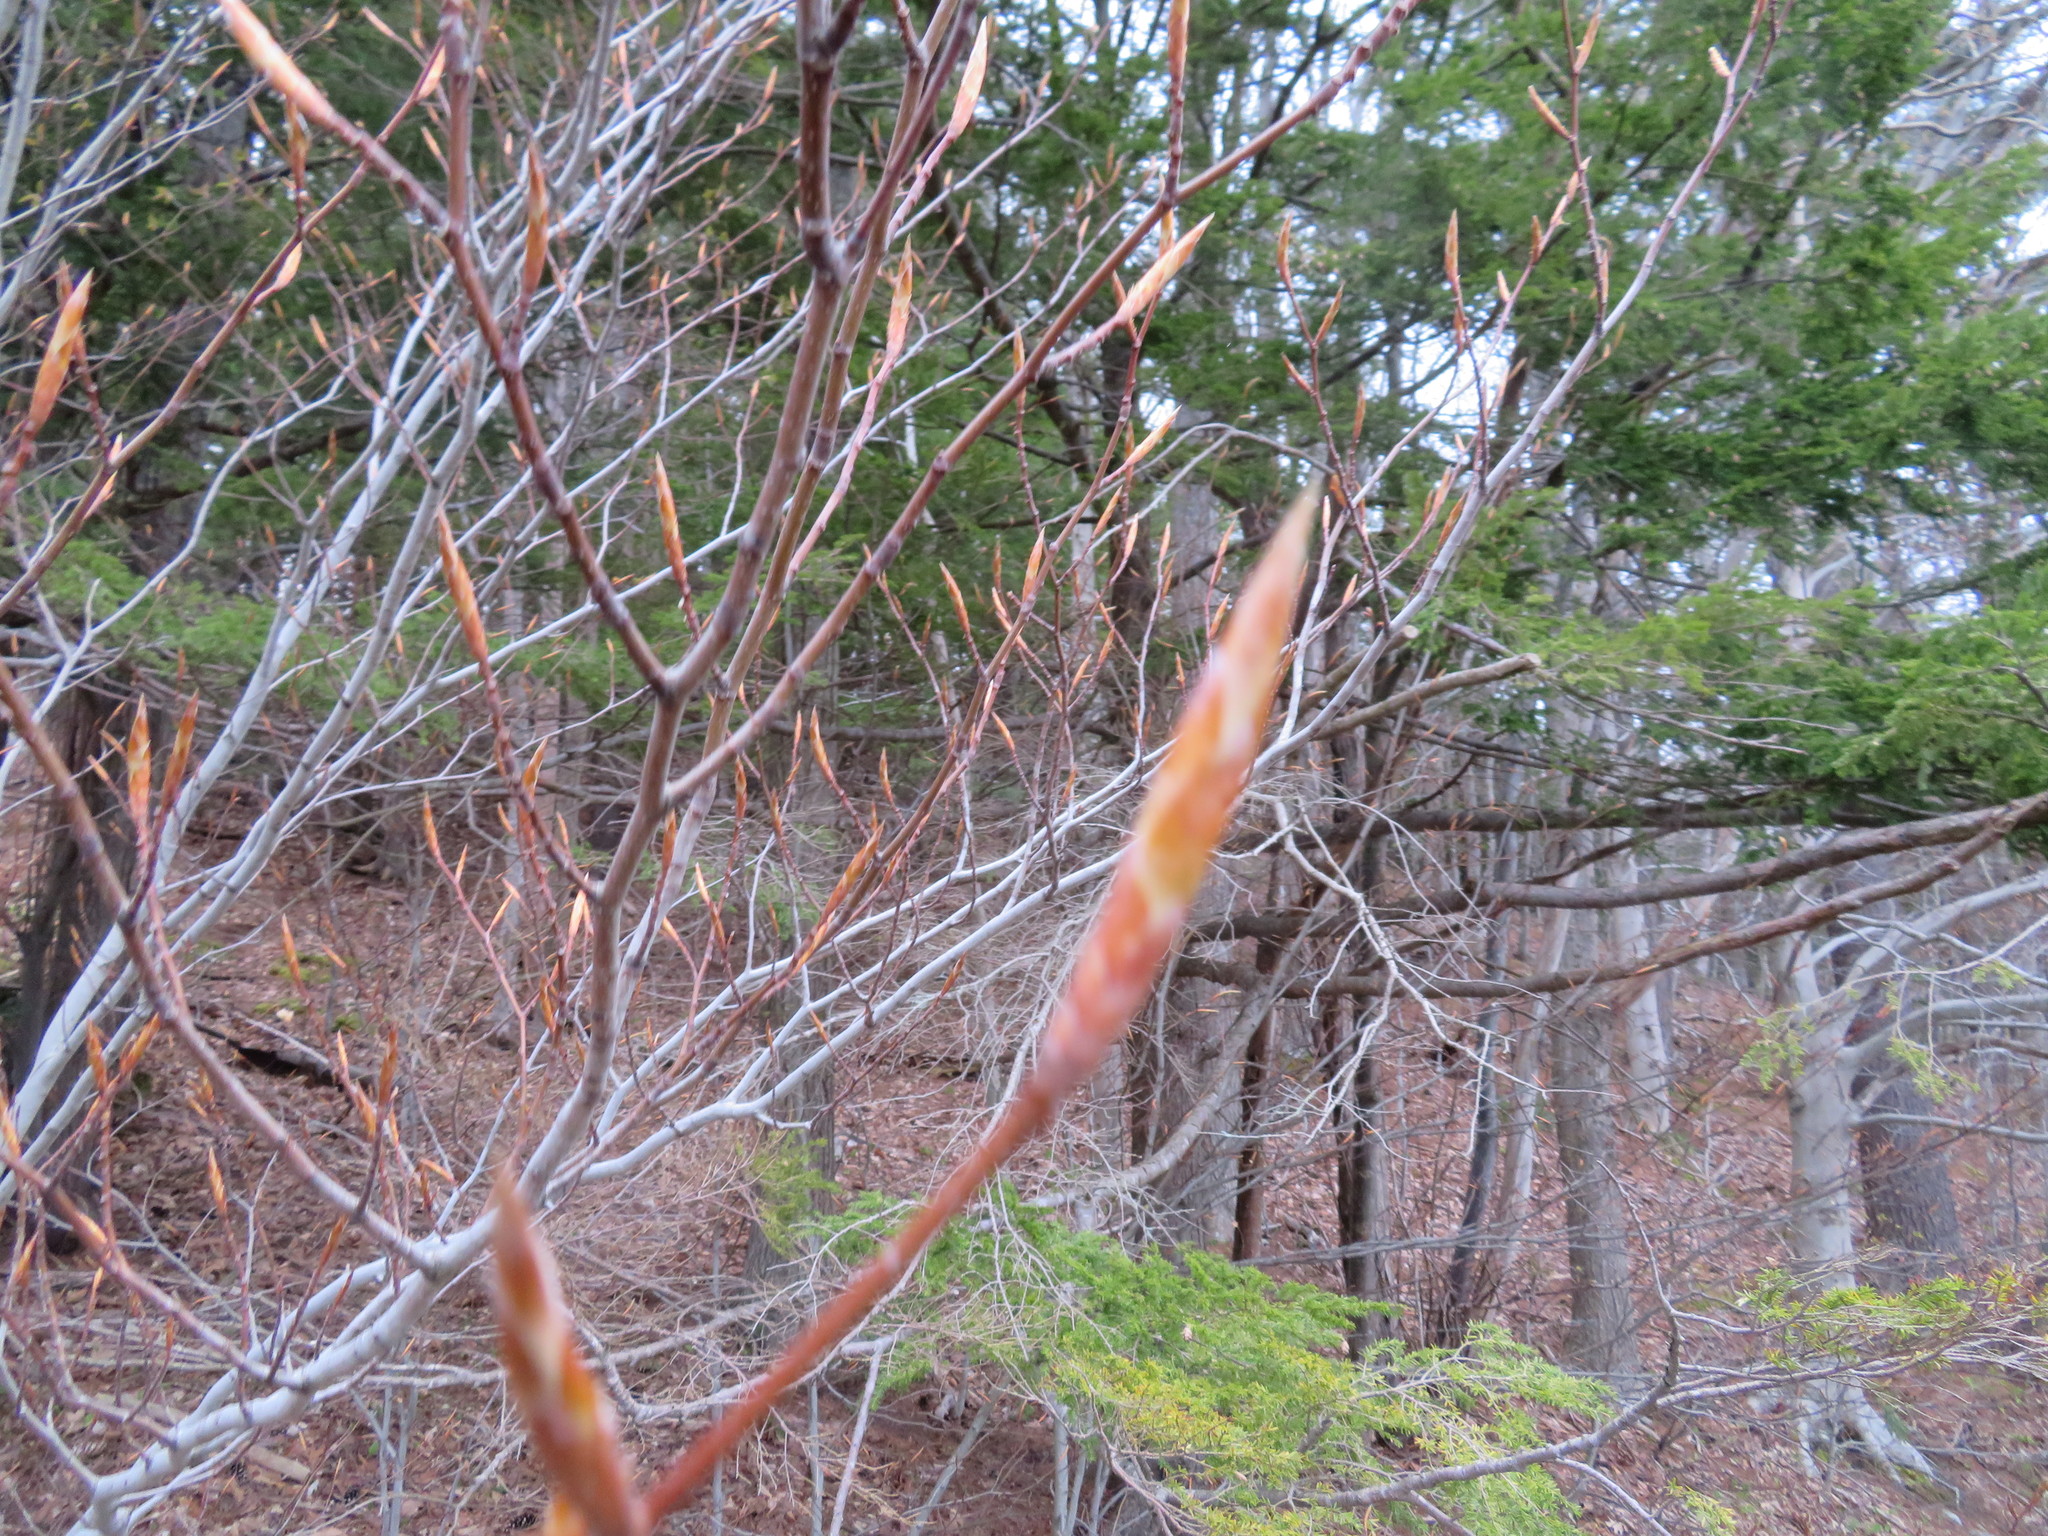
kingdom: Plantae
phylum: Tracheophyta
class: Magnoliopsida
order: Fagales
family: Fagaceae
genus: Fagus
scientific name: Fagus grandifolia
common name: American beech
